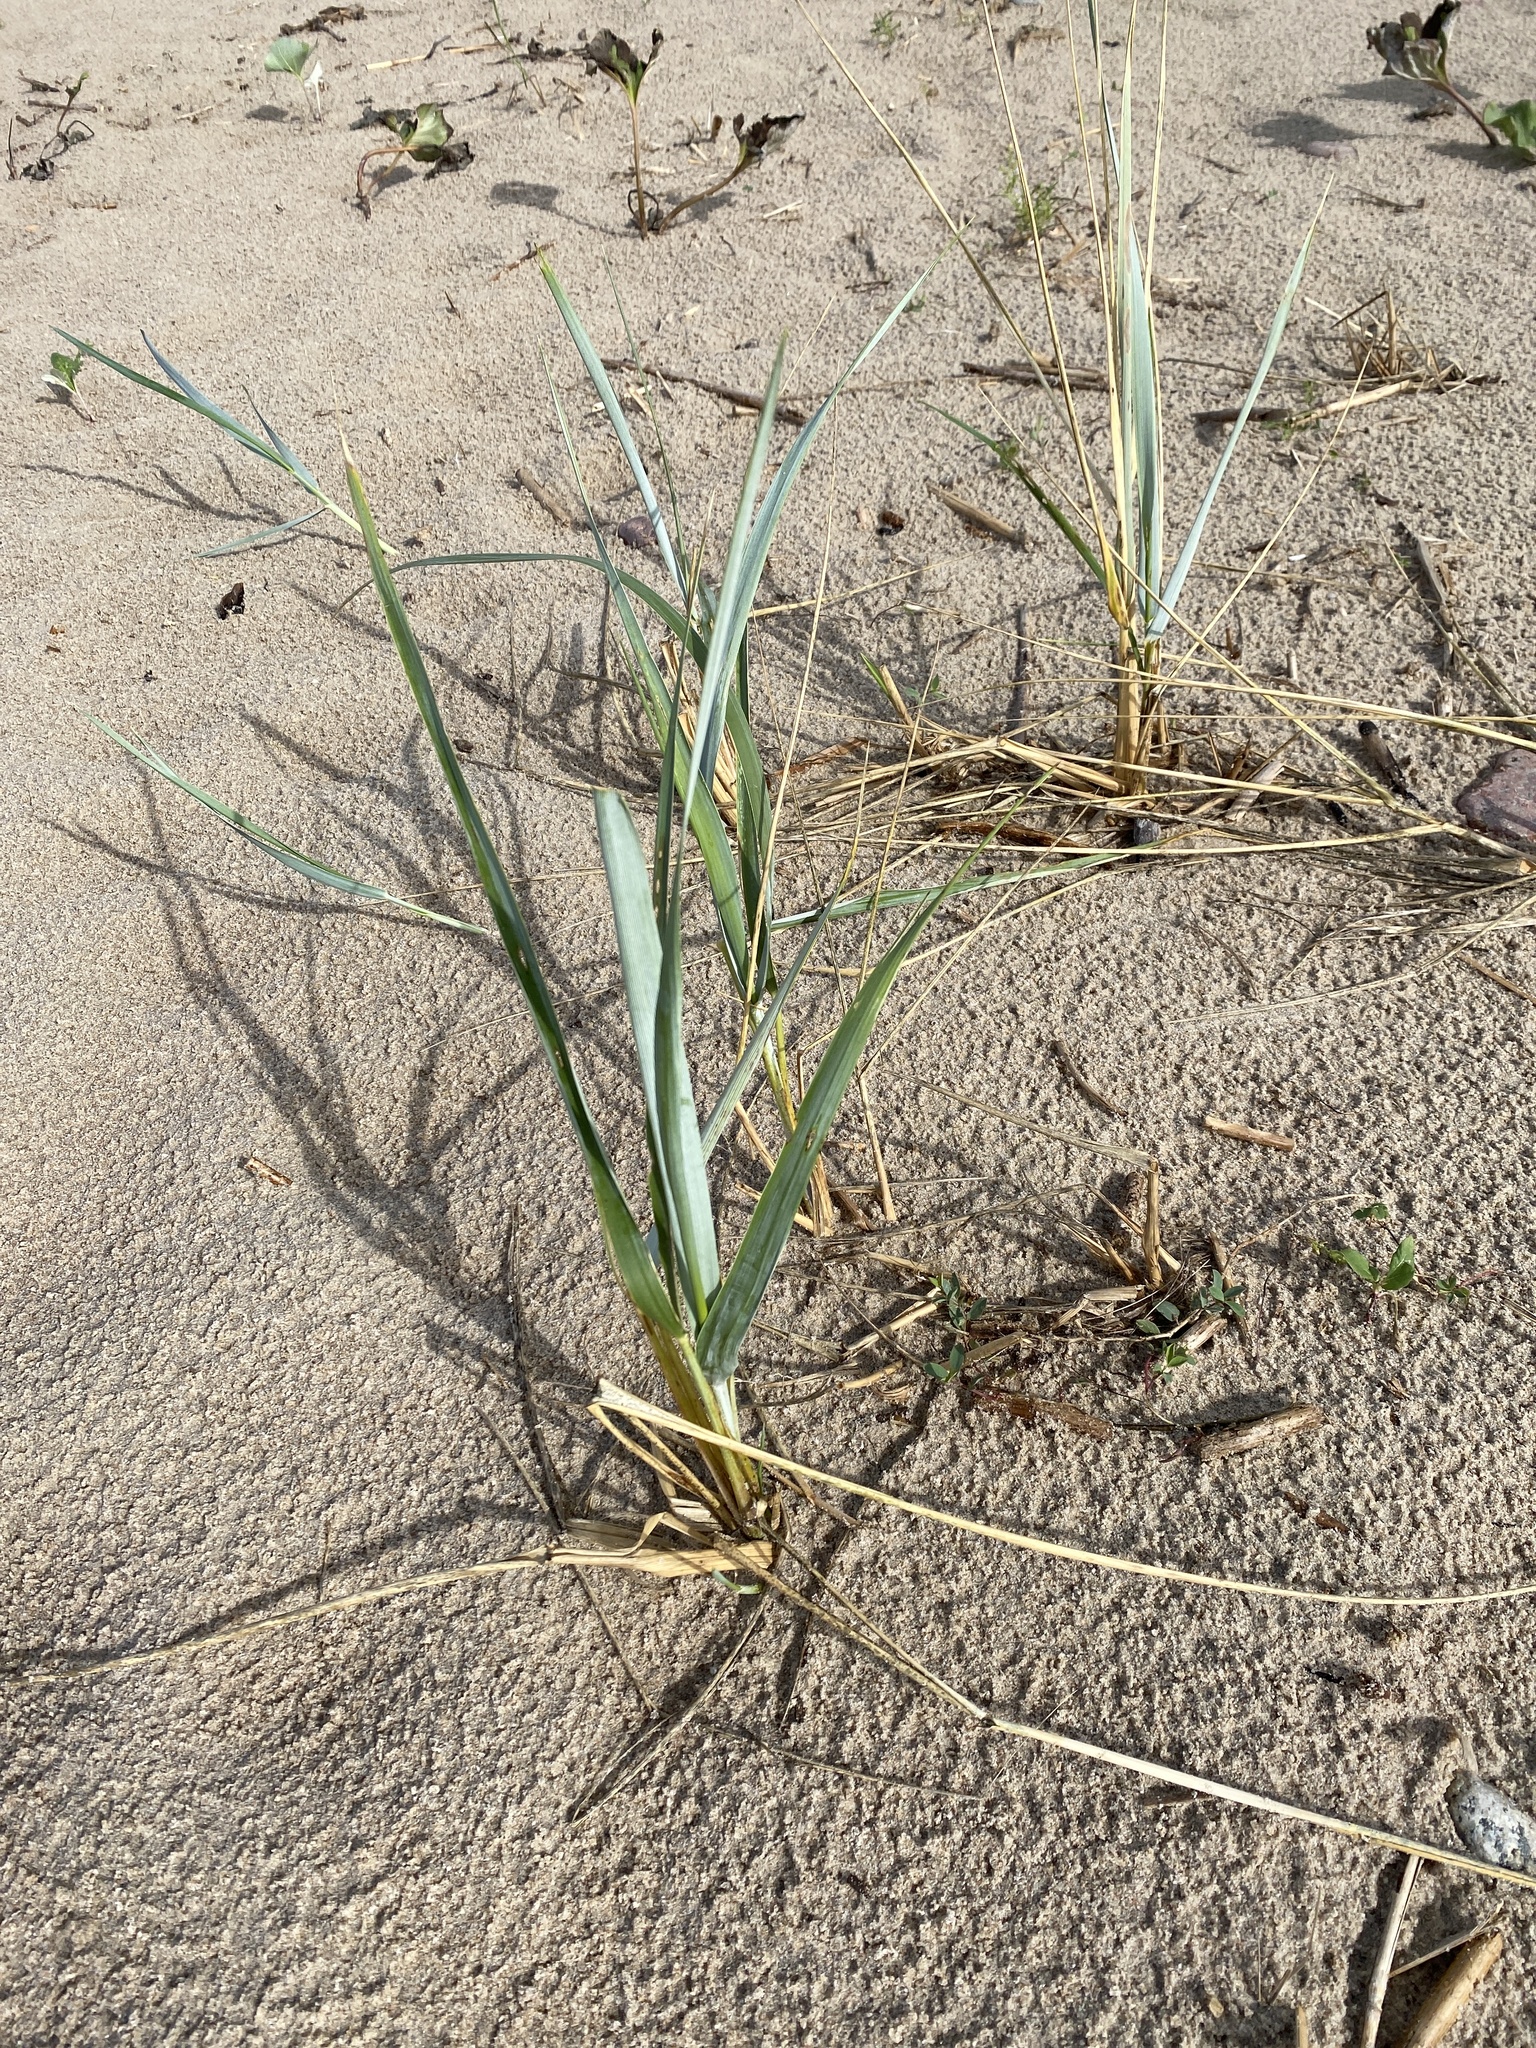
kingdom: Plantae
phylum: Tracheophyta
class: Liliopsida
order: Poales
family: Poaceae
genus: Leymus
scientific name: Leymus arenarius
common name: Lyme-grass
